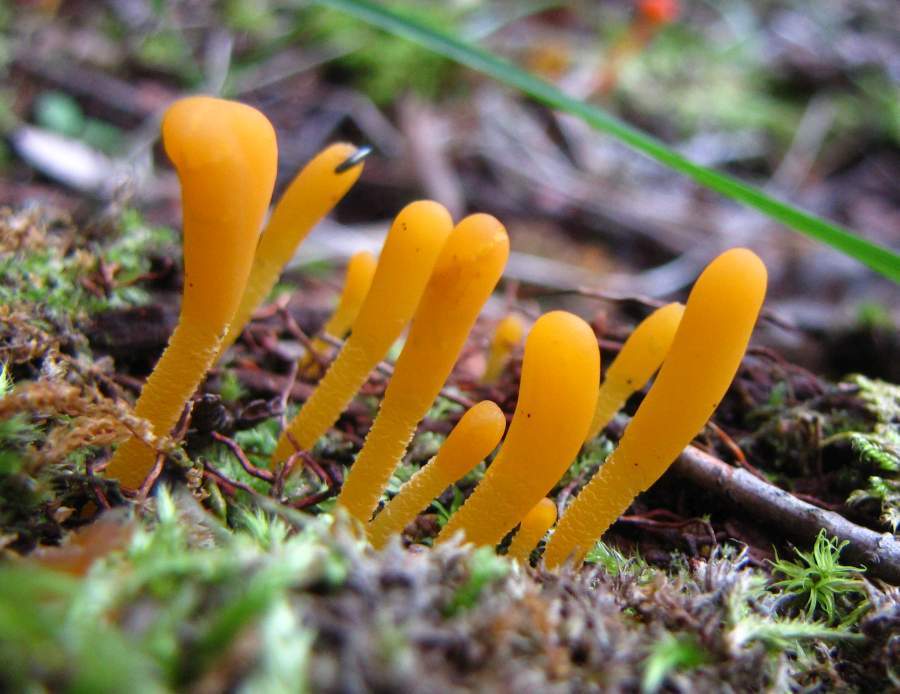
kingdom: Fungi
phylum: Ascomycota
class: Leotiomycetes
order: Leotiales
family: Leotiaceae
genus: Microglossum
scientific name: Microglossum rufum
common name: Orange earthtongue
